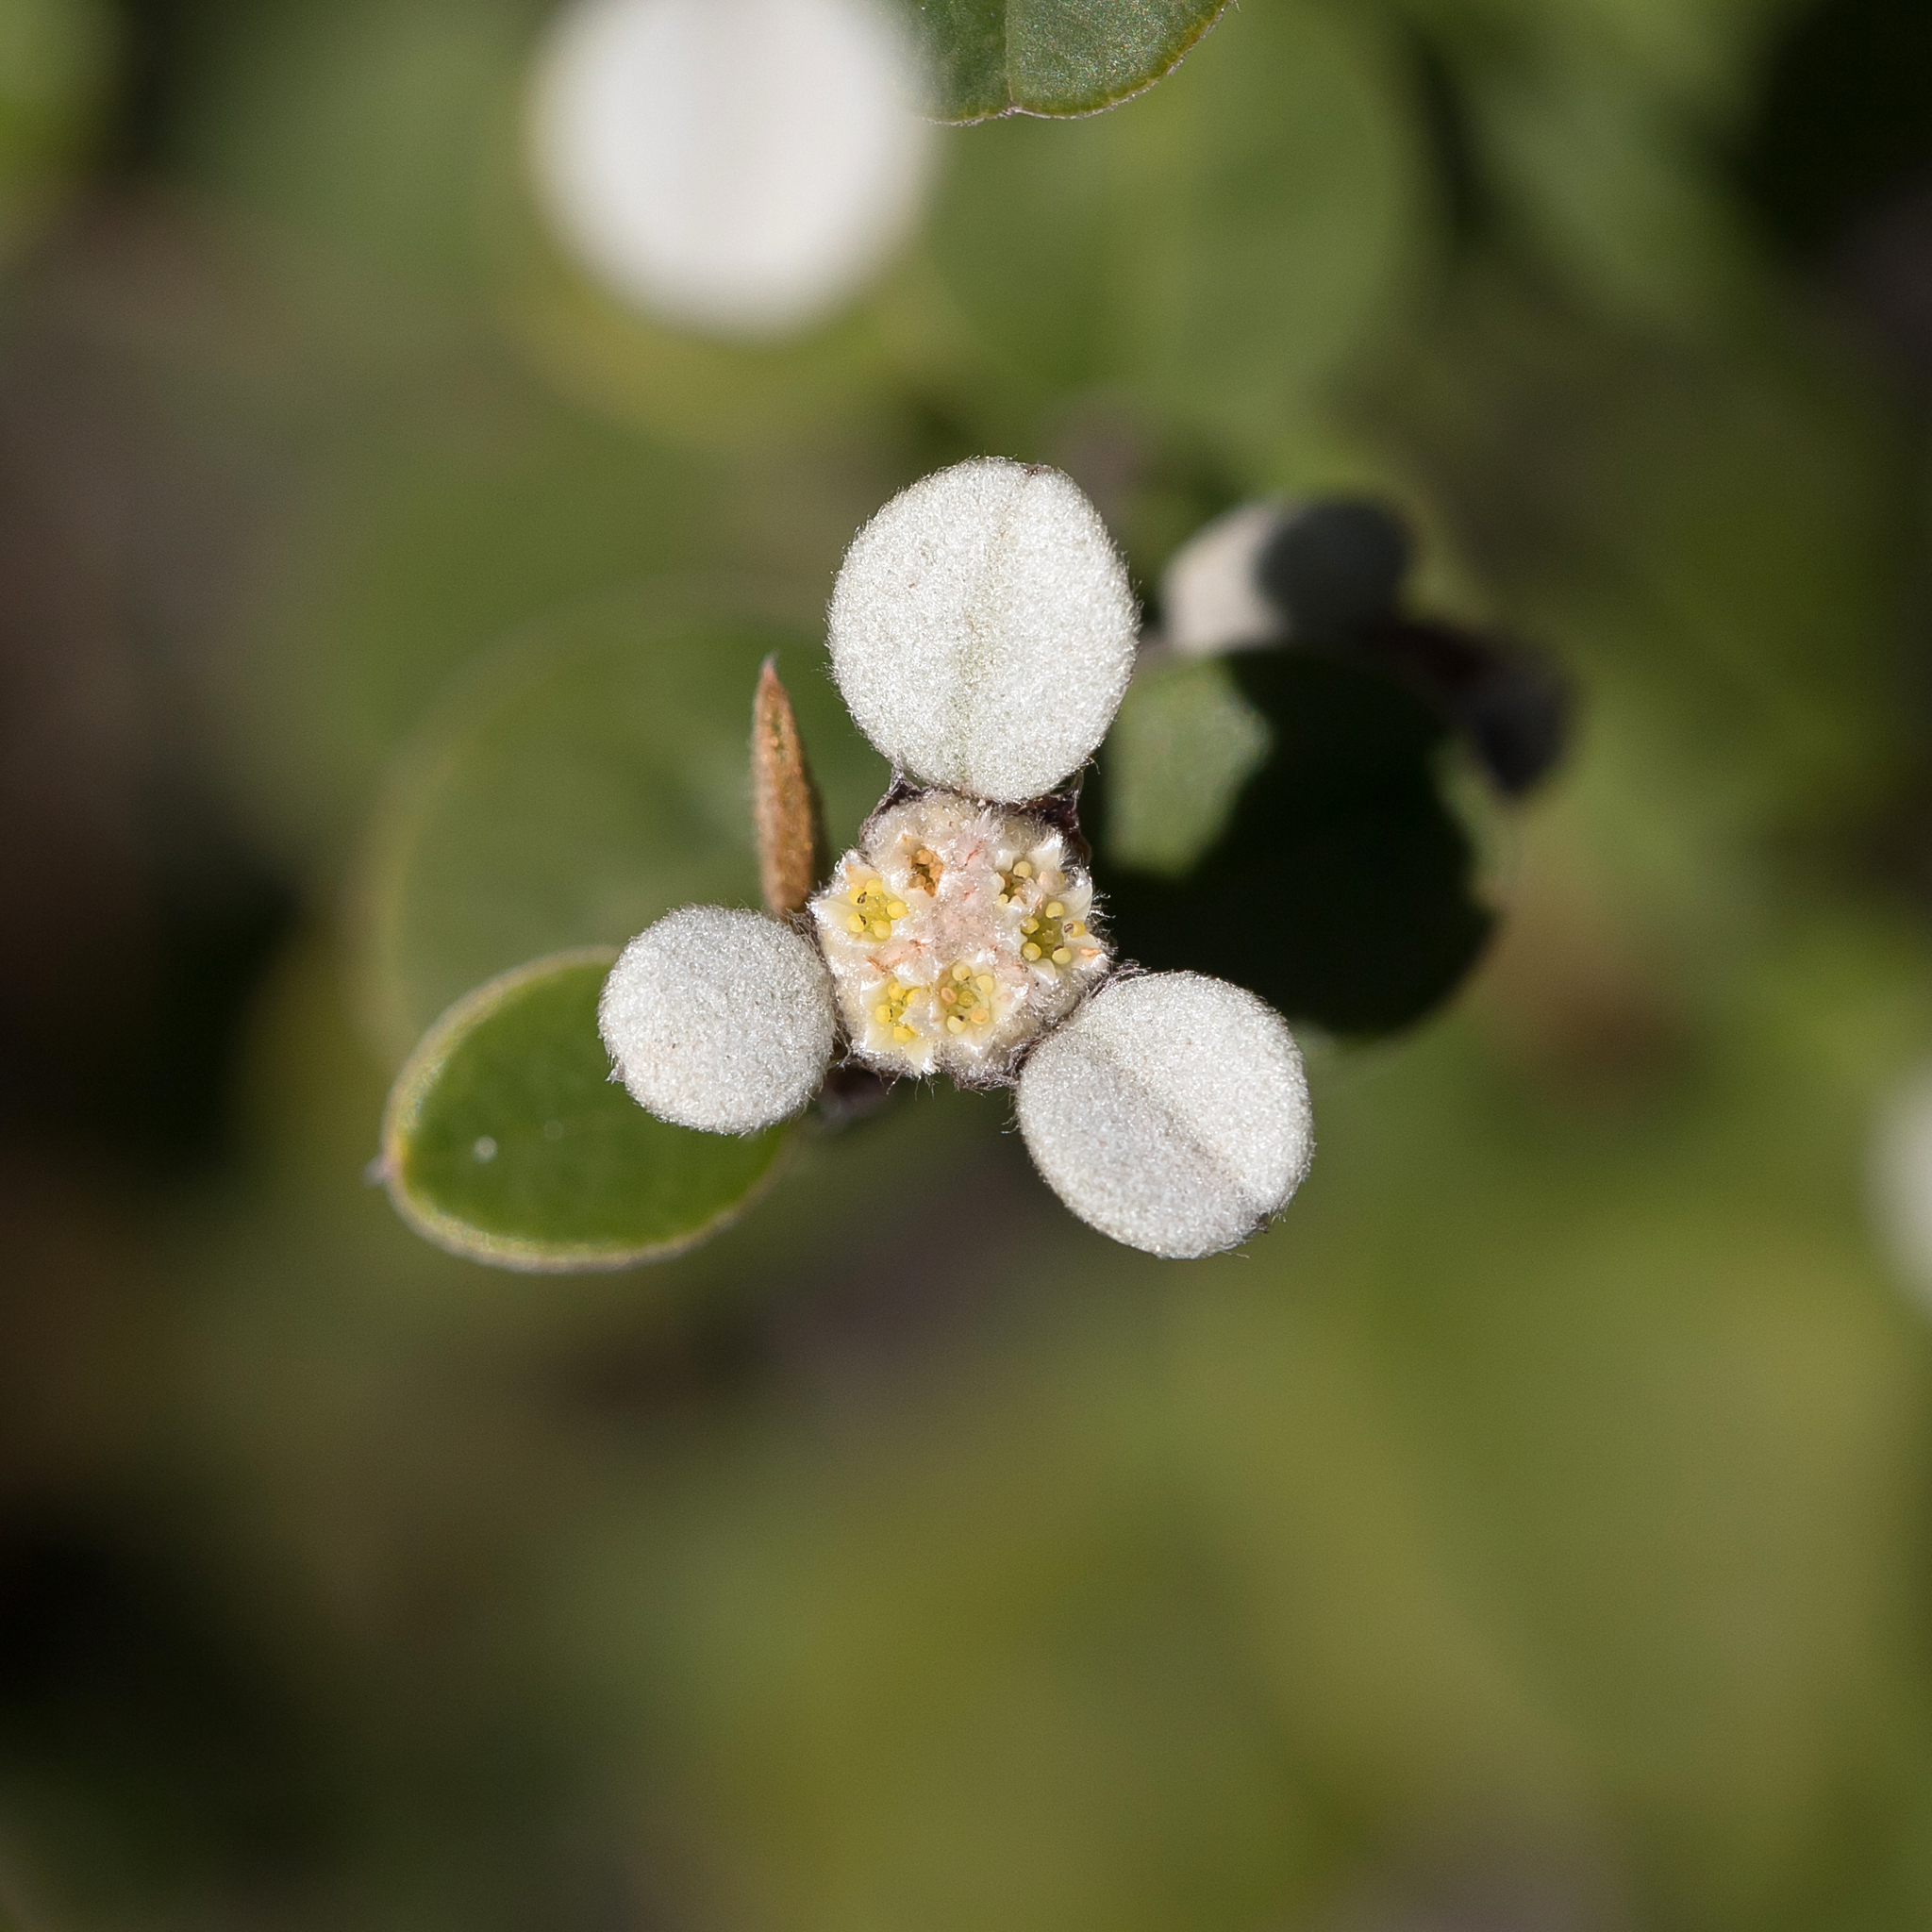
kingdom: Plantae
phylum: Tracheophyta
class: Magnoliopsida
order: Rosales
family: Rhamnaceae
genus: Spyridium
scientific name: Spyridium thymifolium
